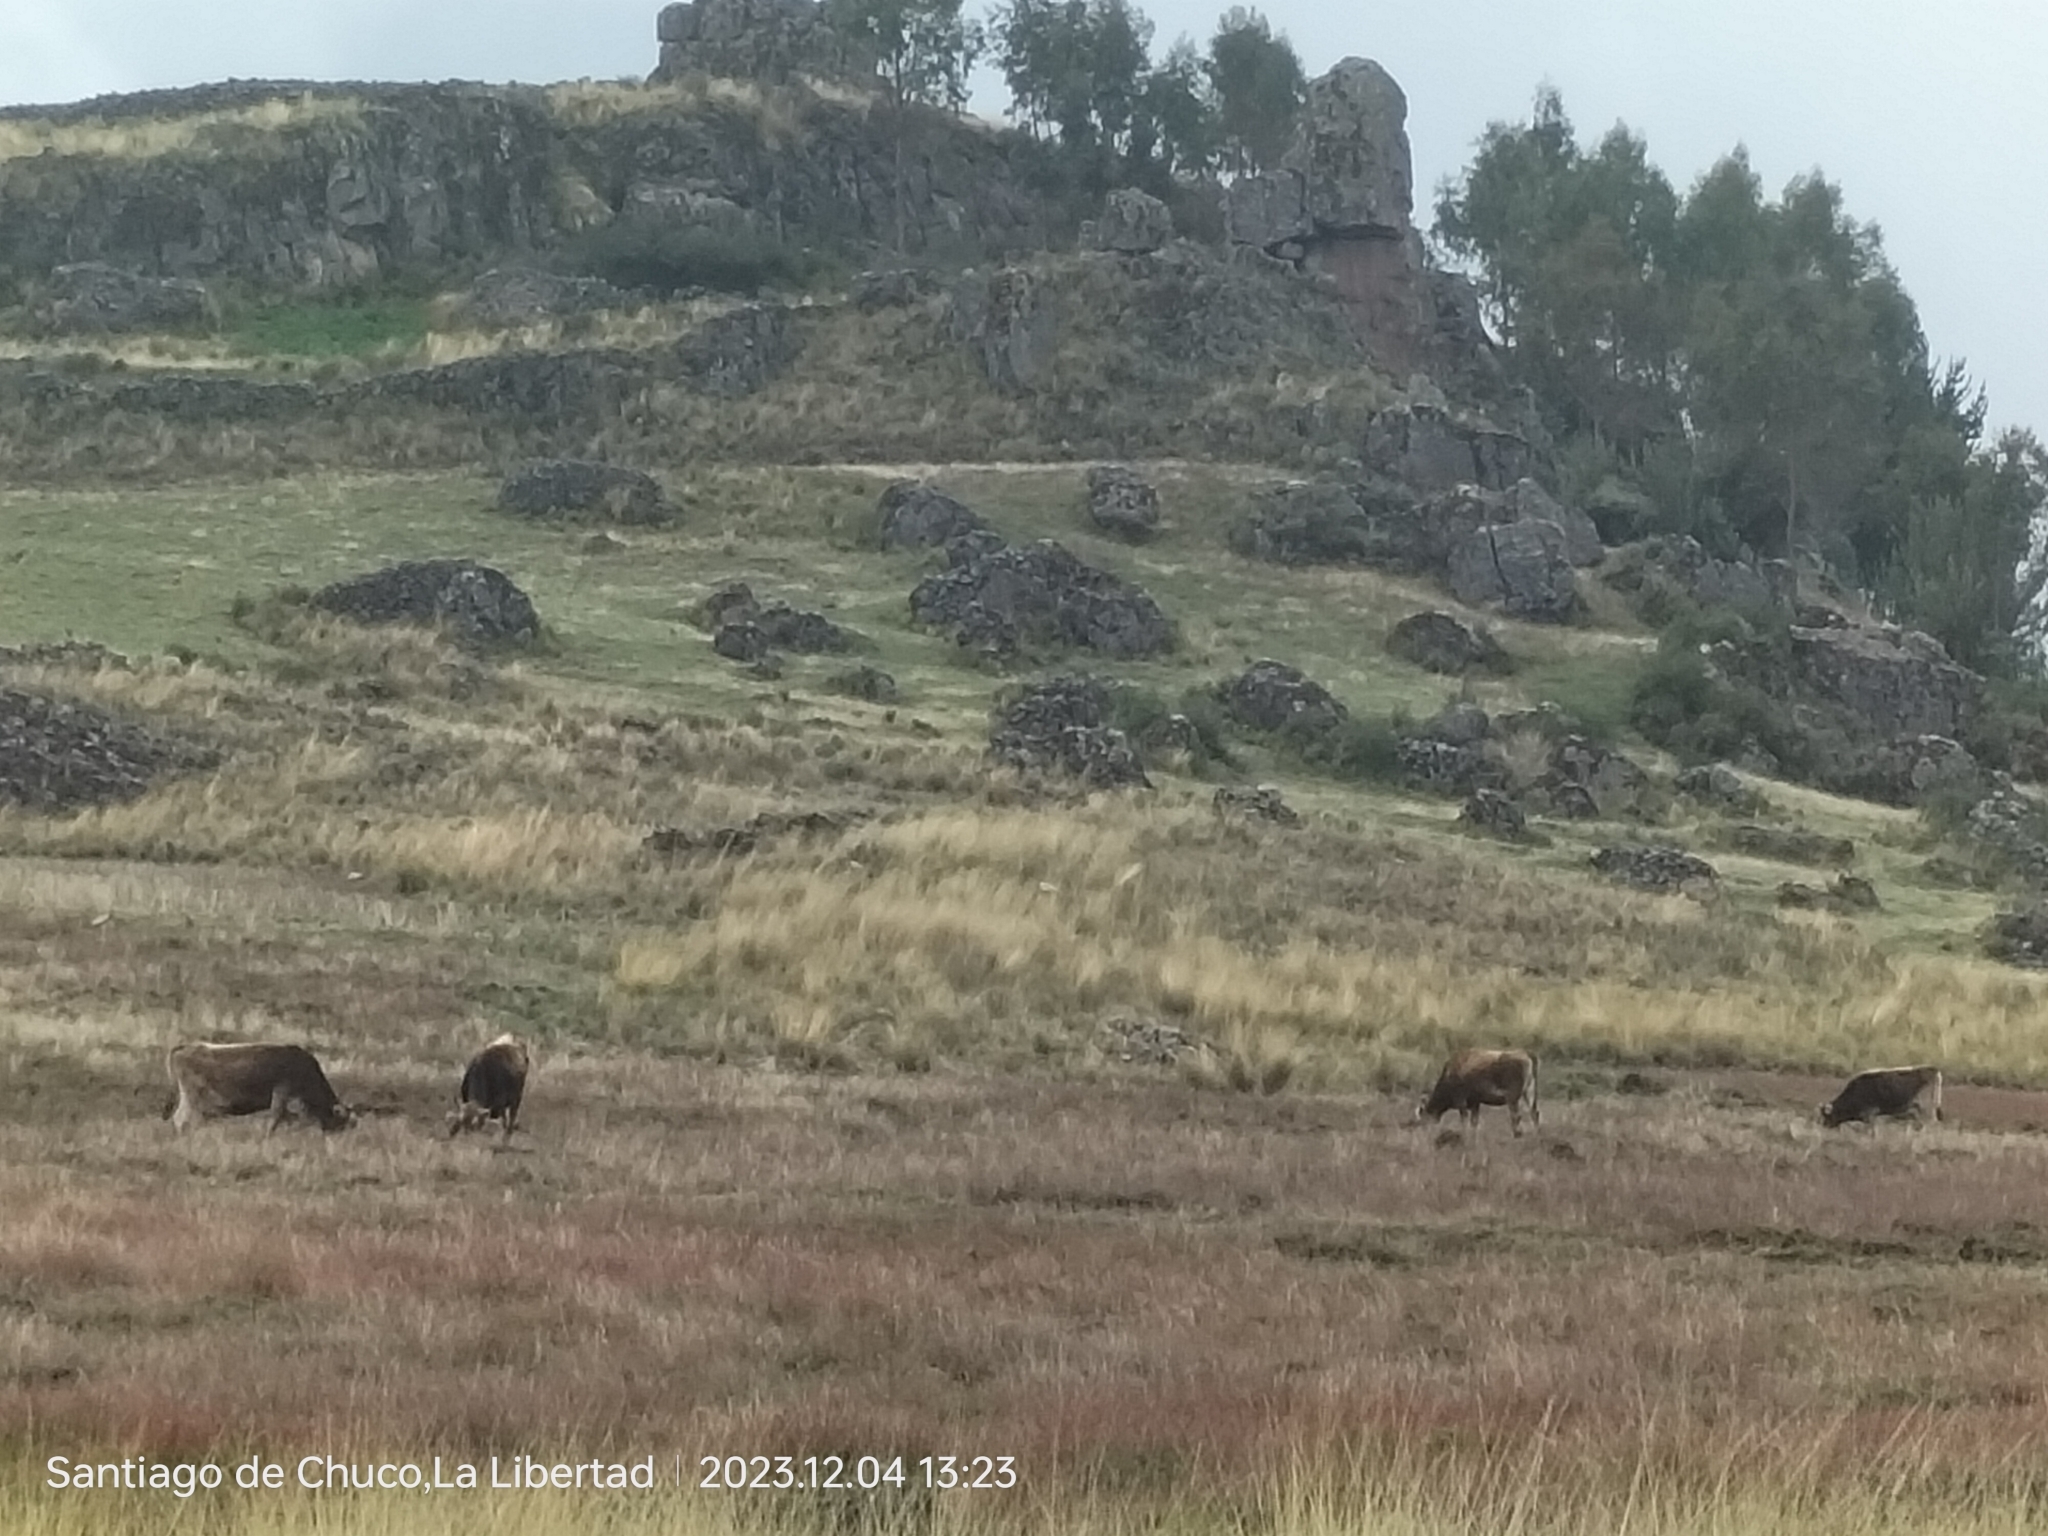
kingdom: Animalia
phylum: Chordata
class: Mammalia
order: Artiodactyla
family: Bovidae
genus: Bos
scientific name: Bos taurus
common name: Domesticated cattle
